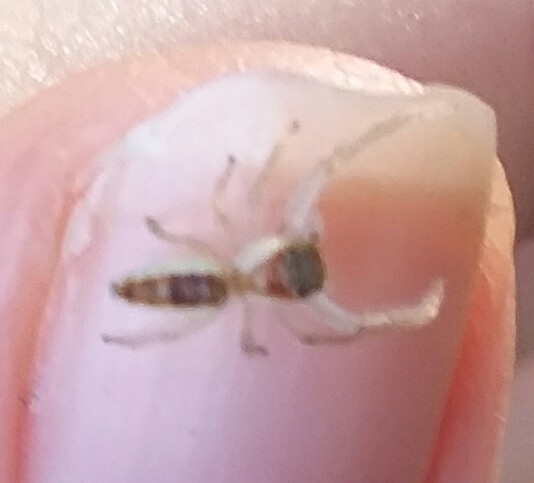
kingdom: Animalia
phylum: Arthropoda
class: Arachnida
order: Araneae
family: Salticidae
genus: Hentzia
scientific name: Hentzia mitrata
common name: White-jawed jumping spider
